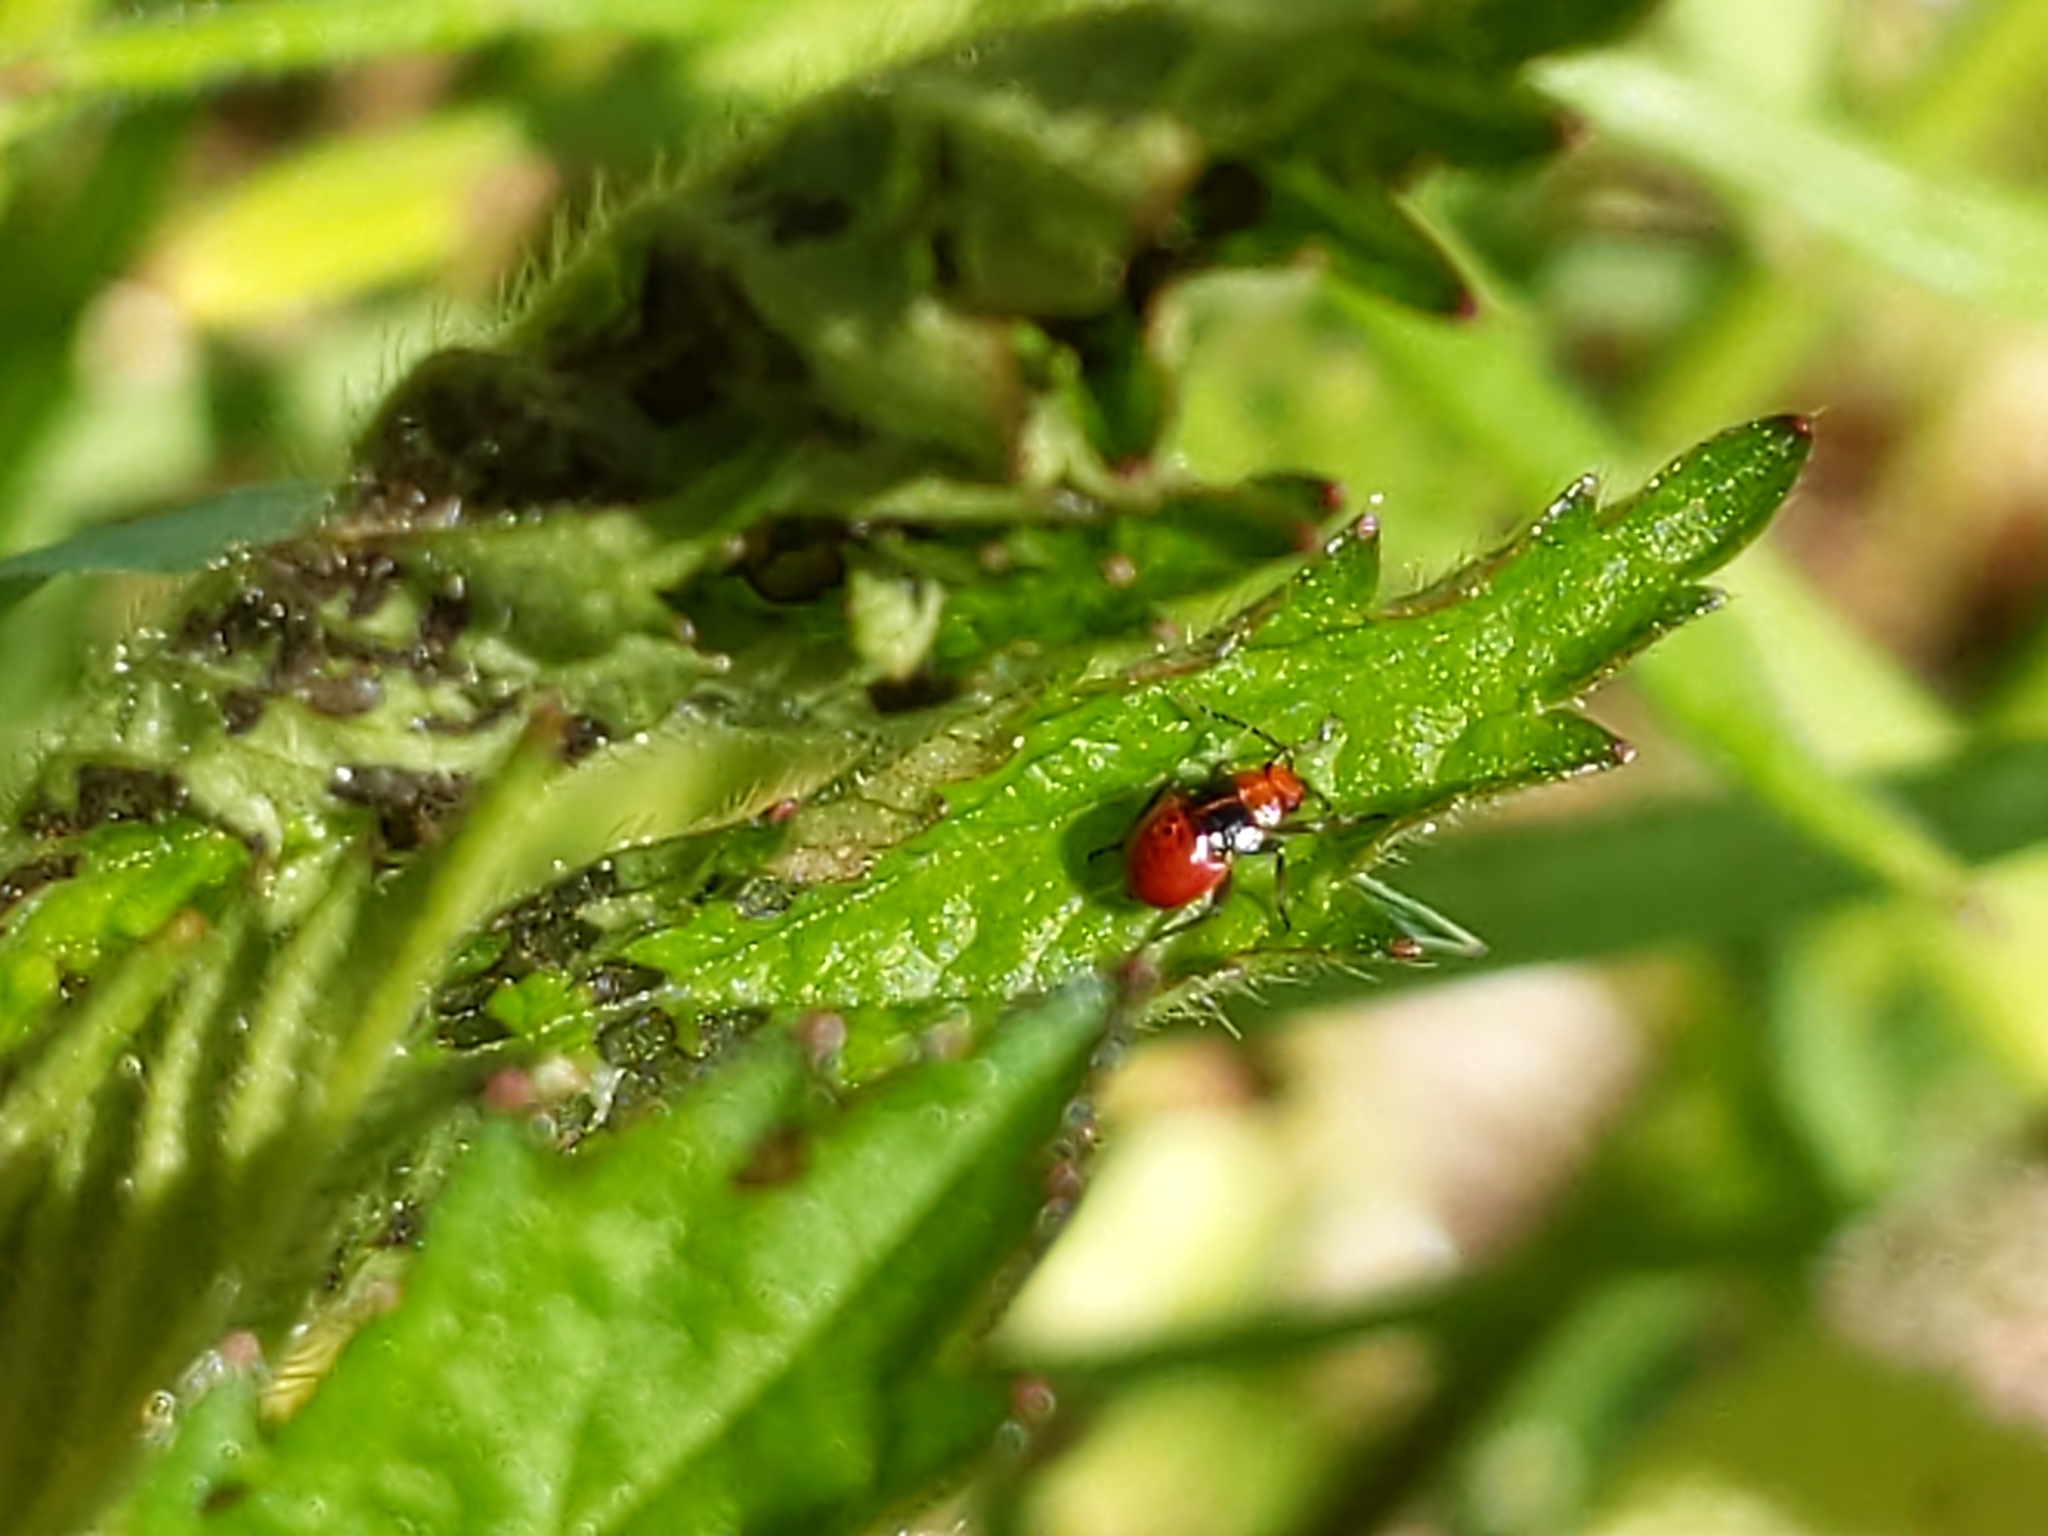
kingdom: Animalia
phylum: Arthropoda
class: Insecta
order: Hemiptera
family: Miridae
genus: Poecilocapsus
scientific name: Poecilocapsus lineatus
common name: Four-lined plant bug
